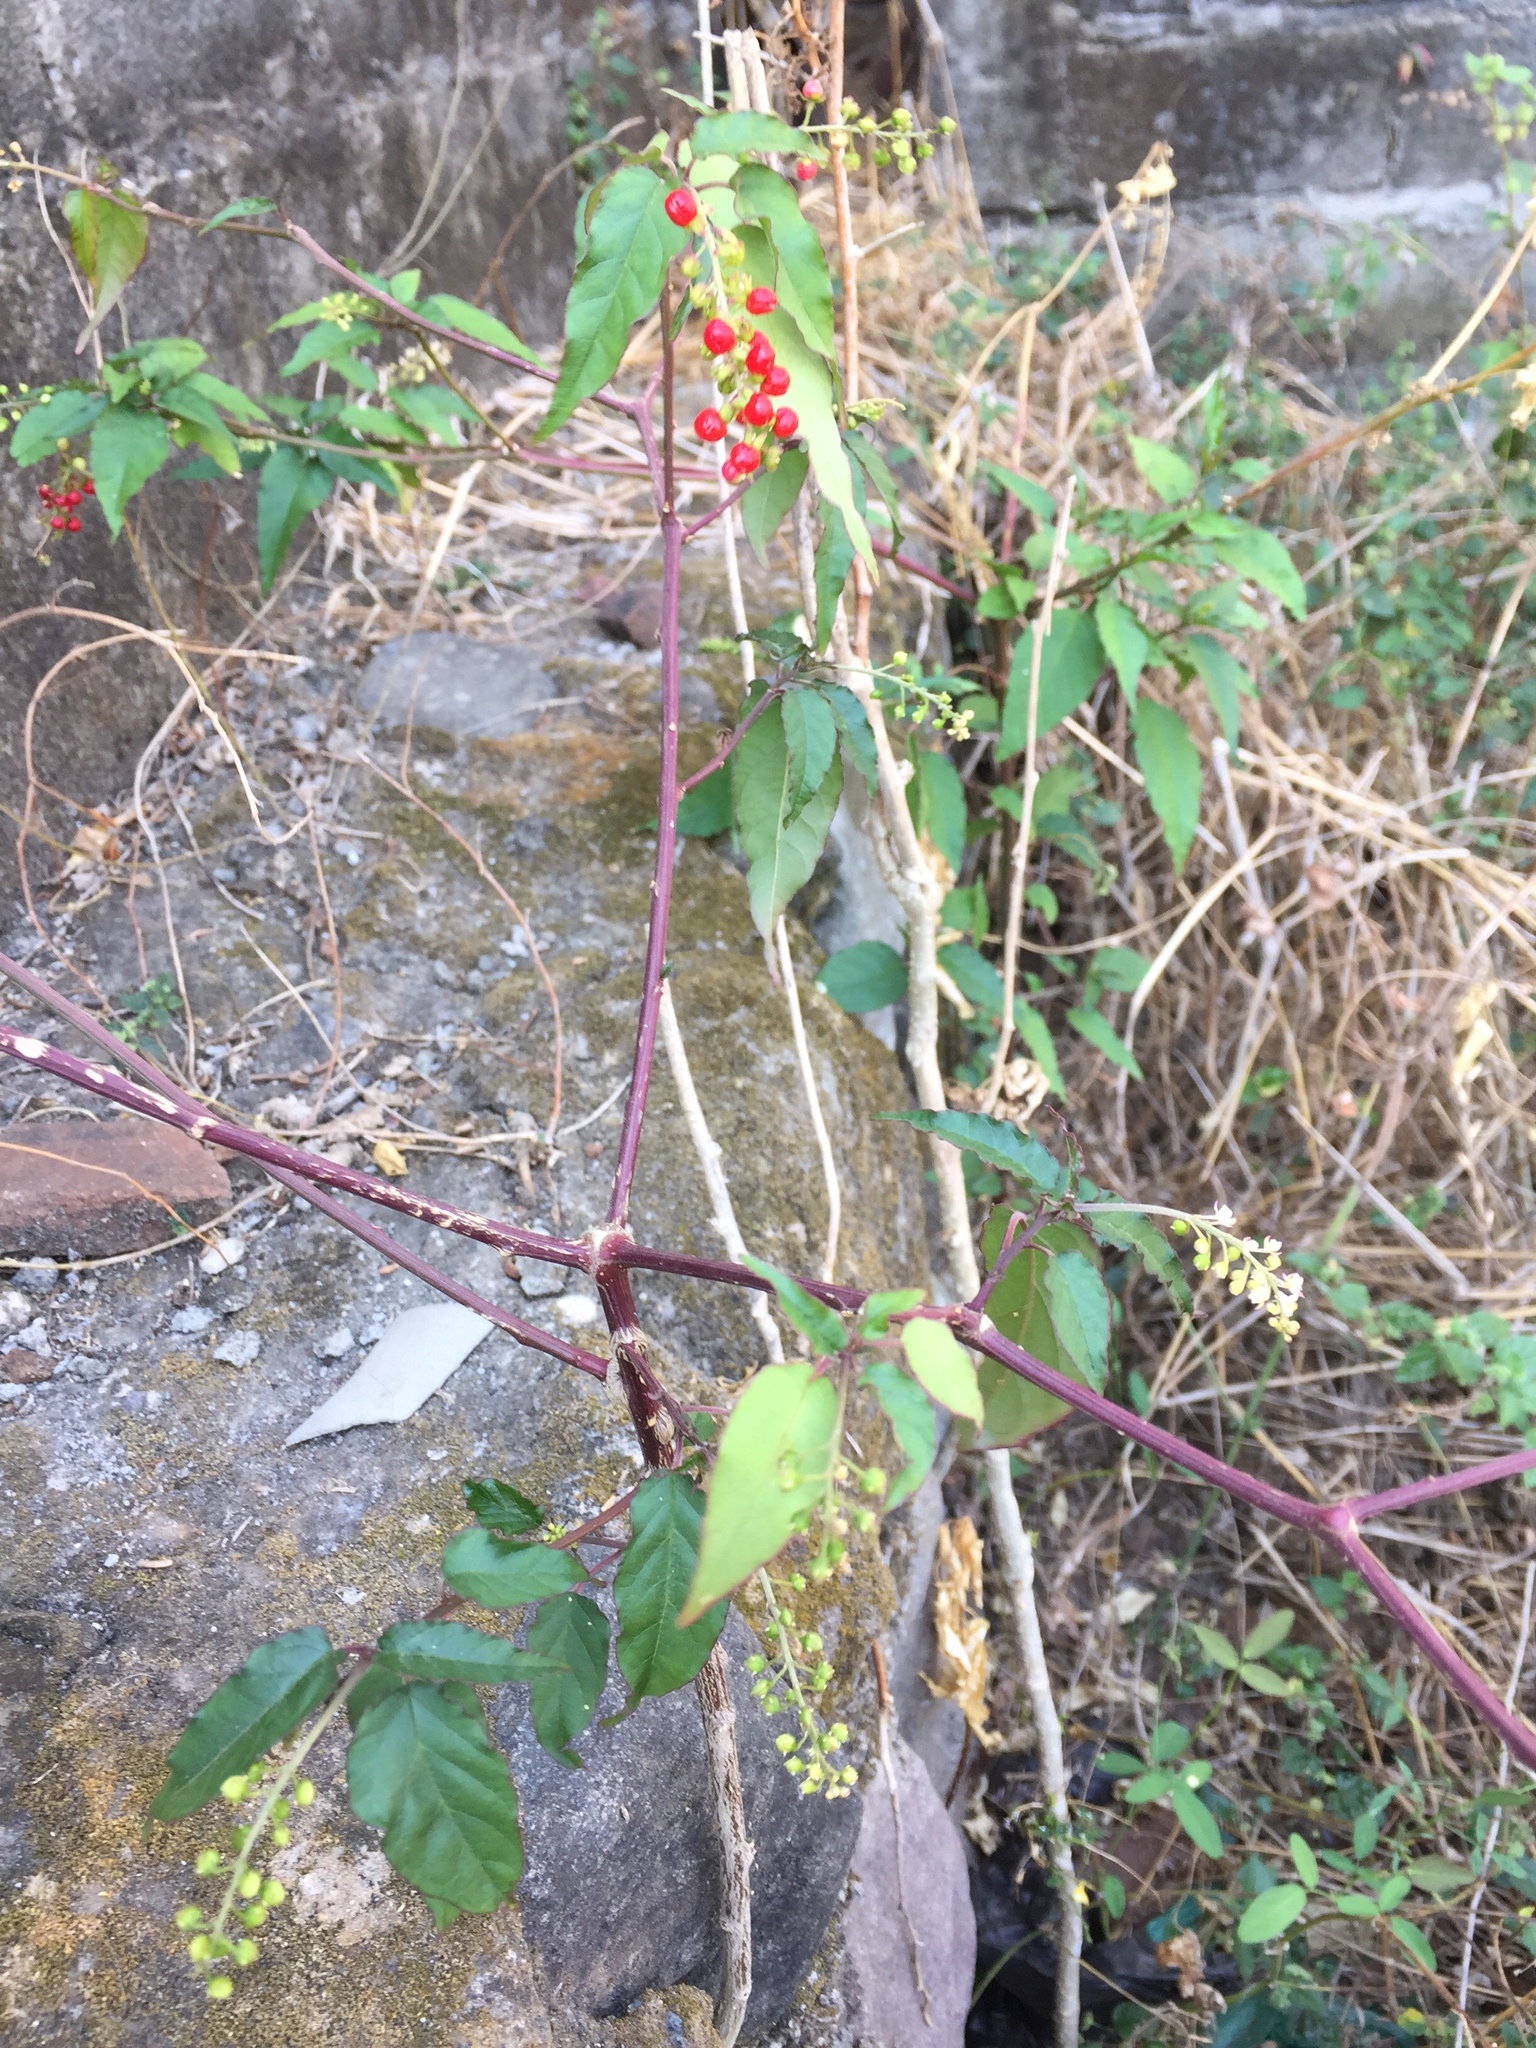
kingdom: Plantae
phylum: Tracheophyta
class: Magnoliopsida
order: Caryophyllales
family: Phytolaccaceae
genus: Rivina
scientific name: Rivina humilis
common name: Rougeplant
